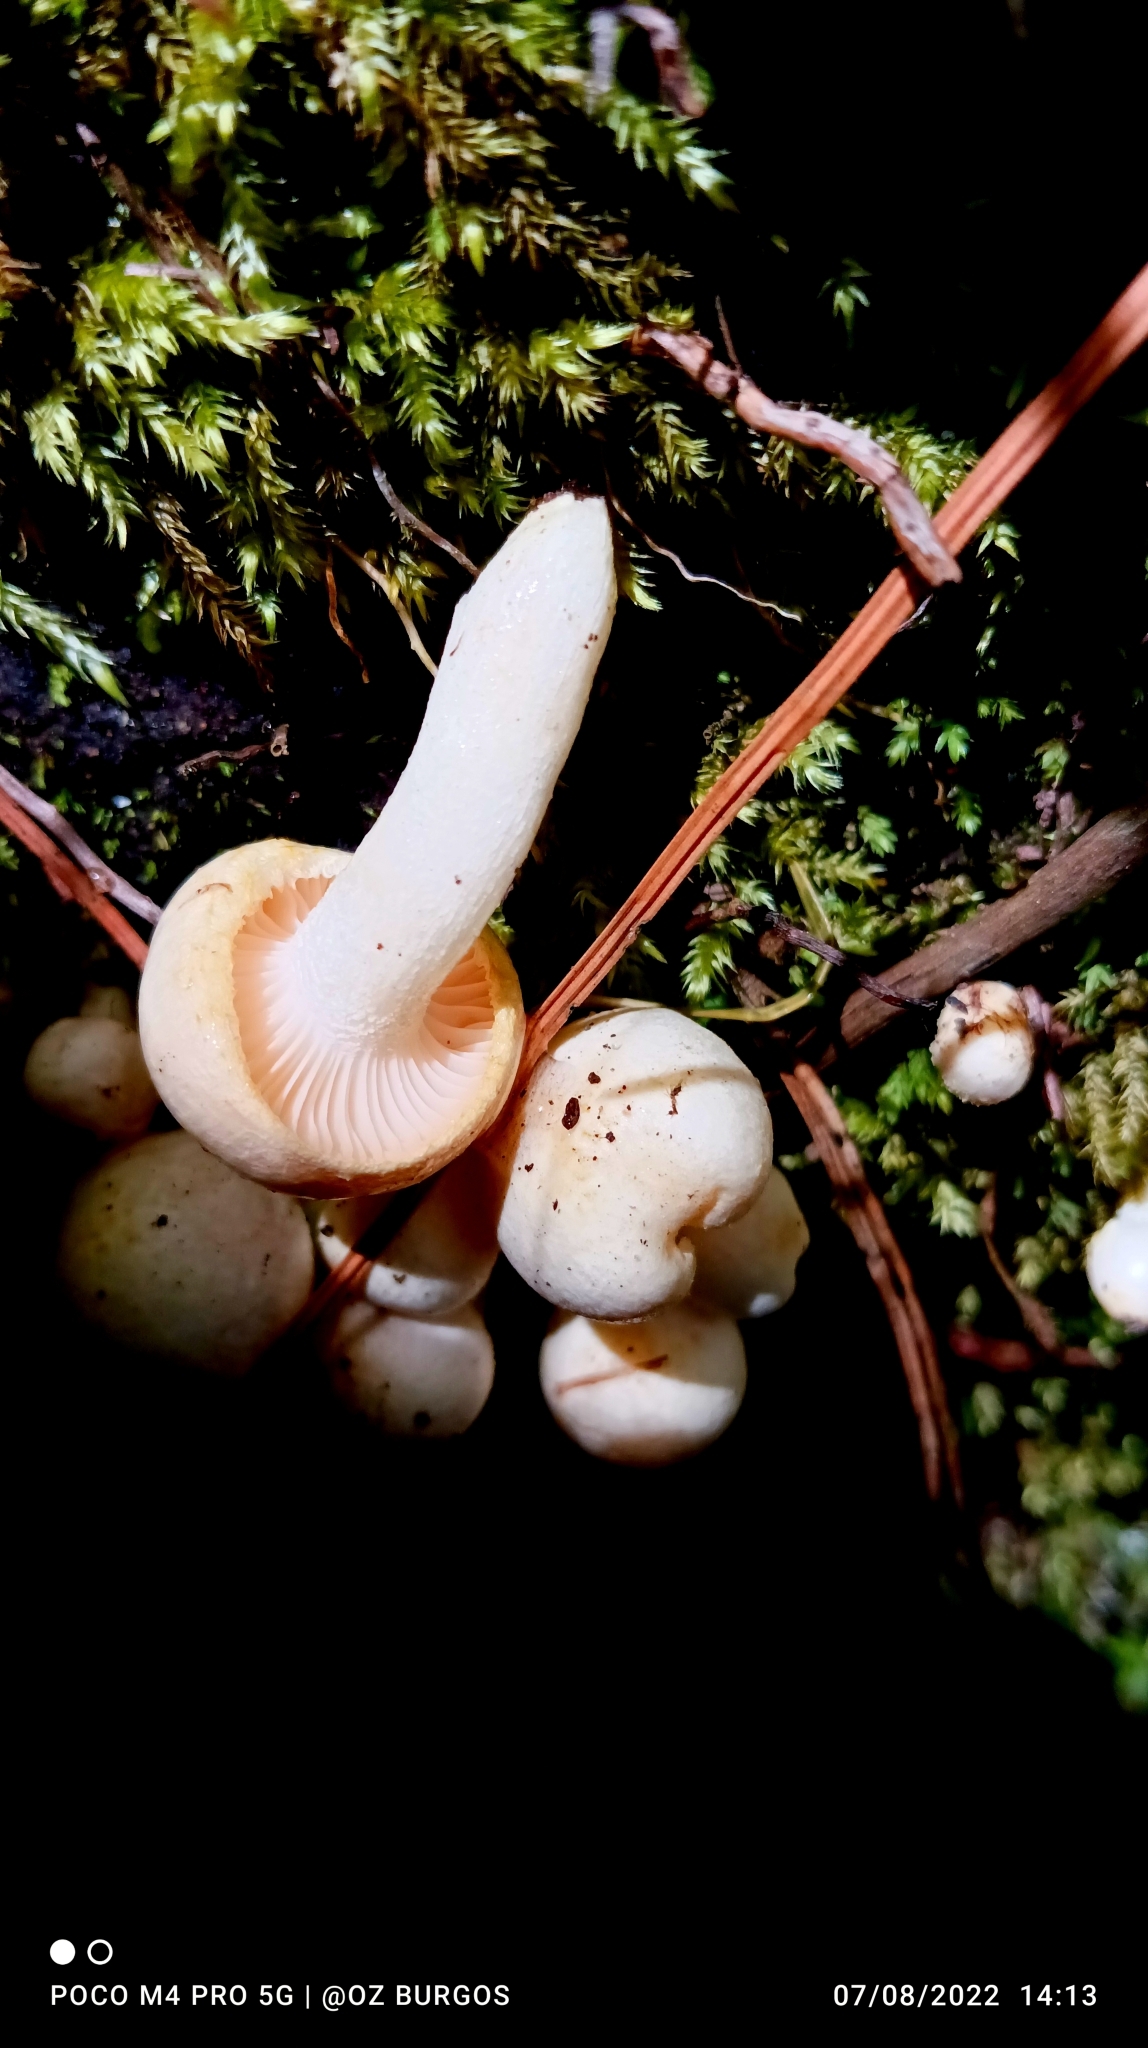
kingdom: Fungi
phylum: Basidiomycota
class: Agaricomycetes
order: Agaricales
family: Hygrophoraceae
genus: Hygrophorus
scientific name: Hygrophorus chrysodon
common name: Gold flecked woodwax
